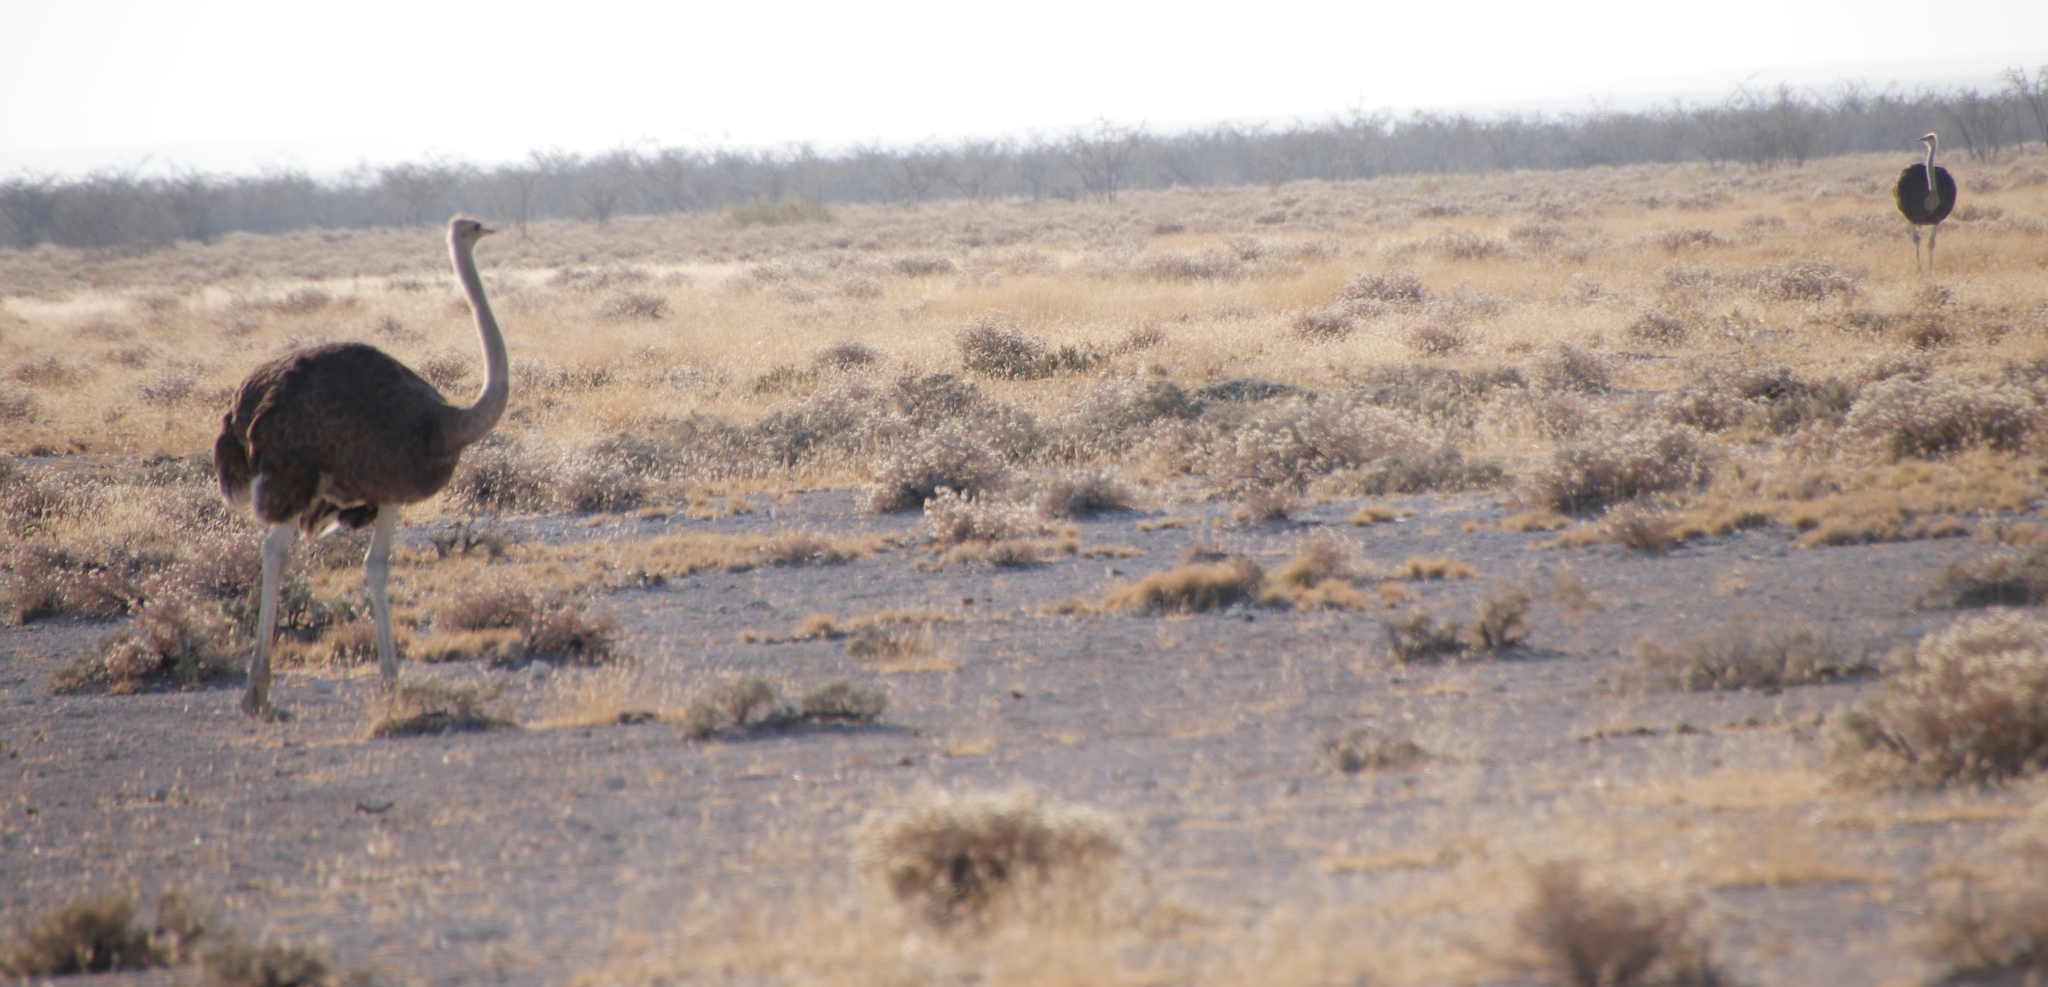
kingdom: Animalia
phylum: Chordata
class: Aves
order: Struthioniformes
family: Struthionidae
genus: Struthio
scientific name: Struthio camelus
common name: Common ostrich
